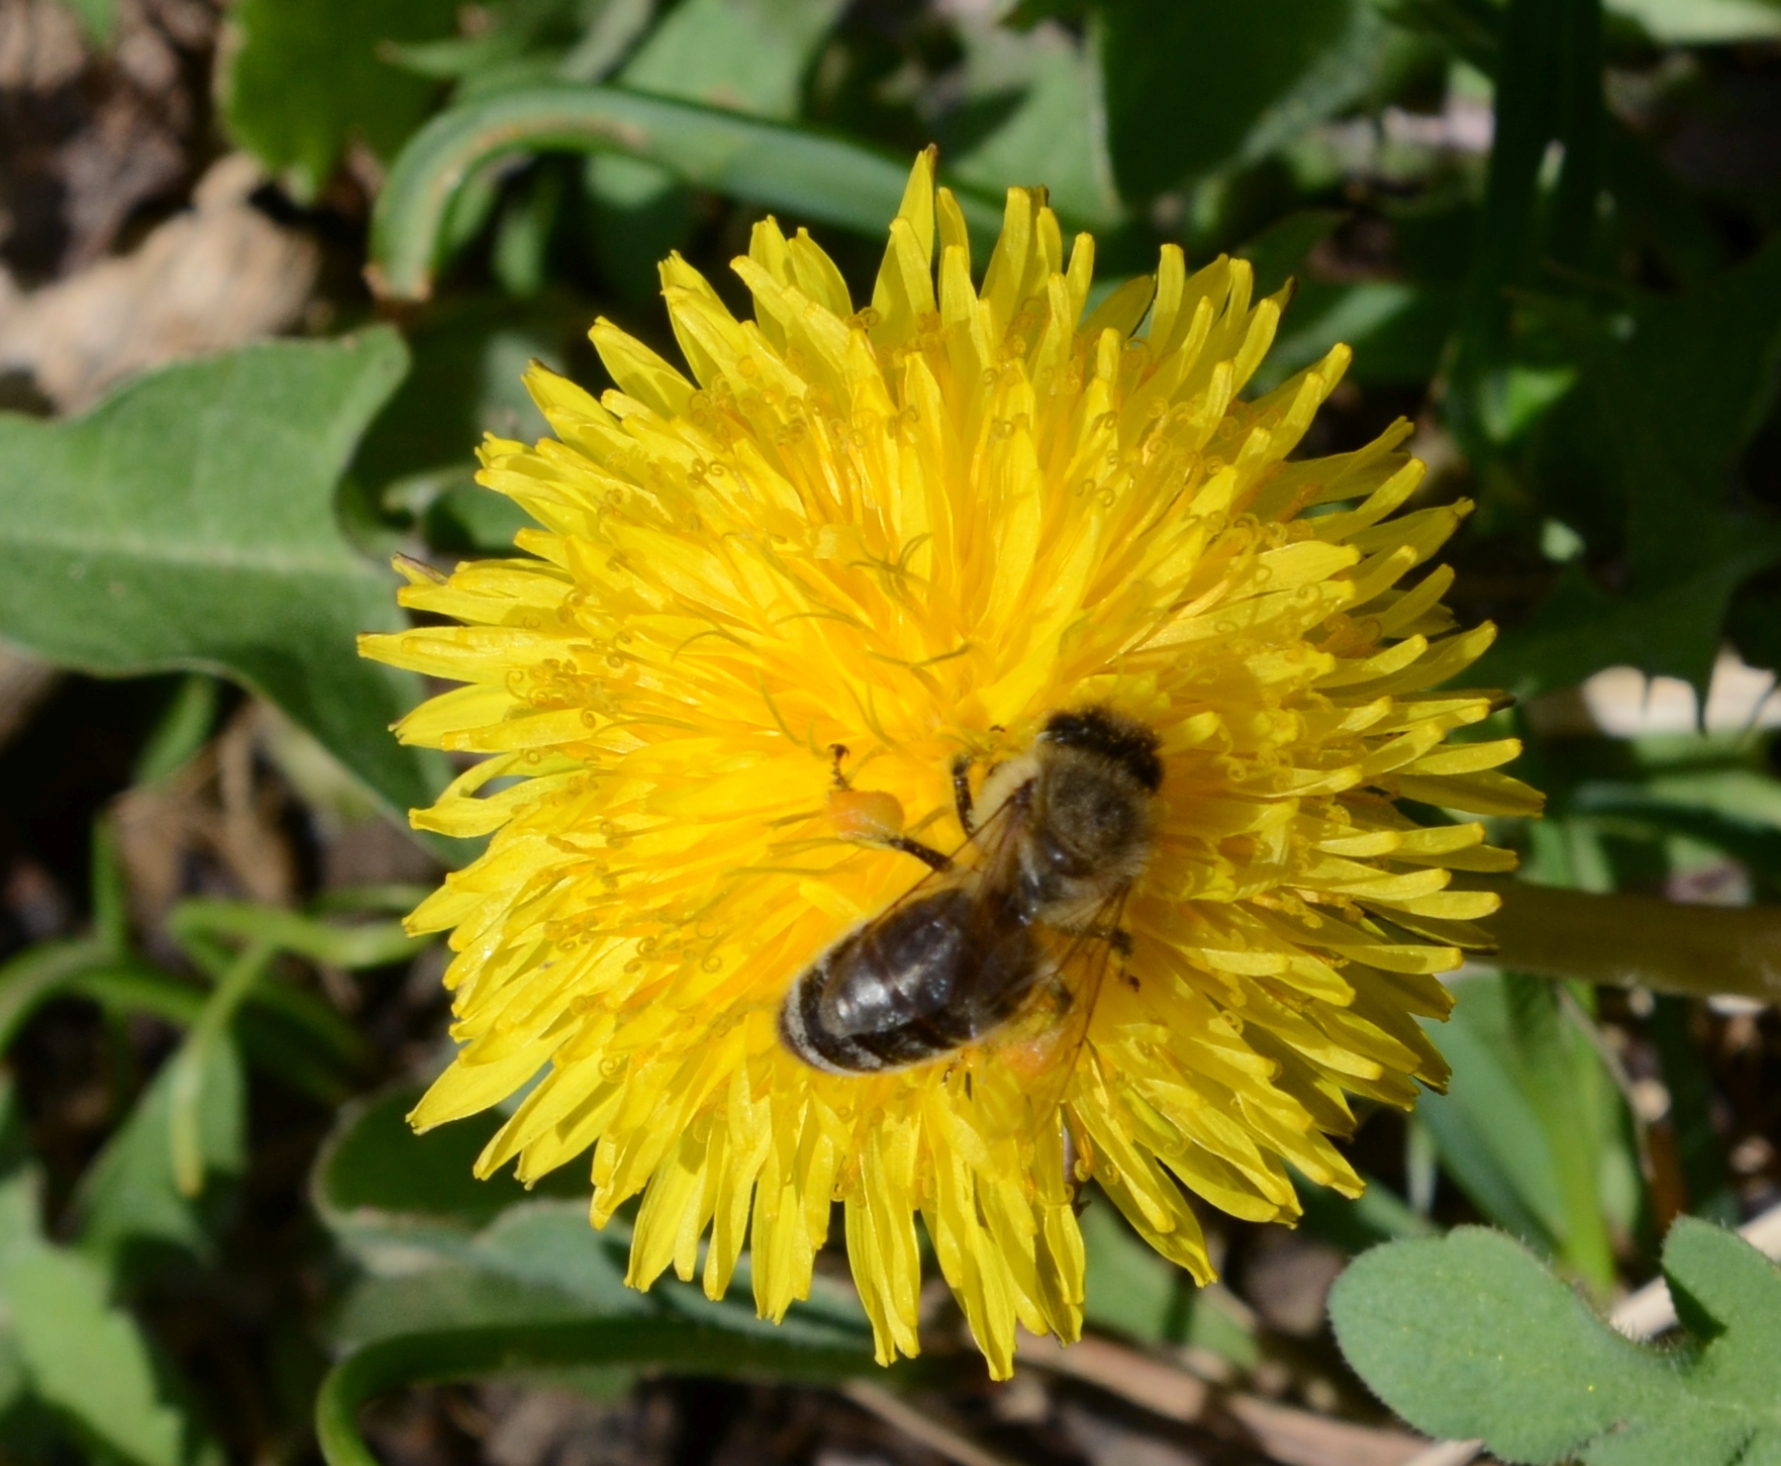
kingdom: Animalia
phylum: Arthropoda
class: Insecta
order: Hymenoptera
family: Apidae
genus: Apis
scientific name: Apis mellifera
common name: Honey bee
